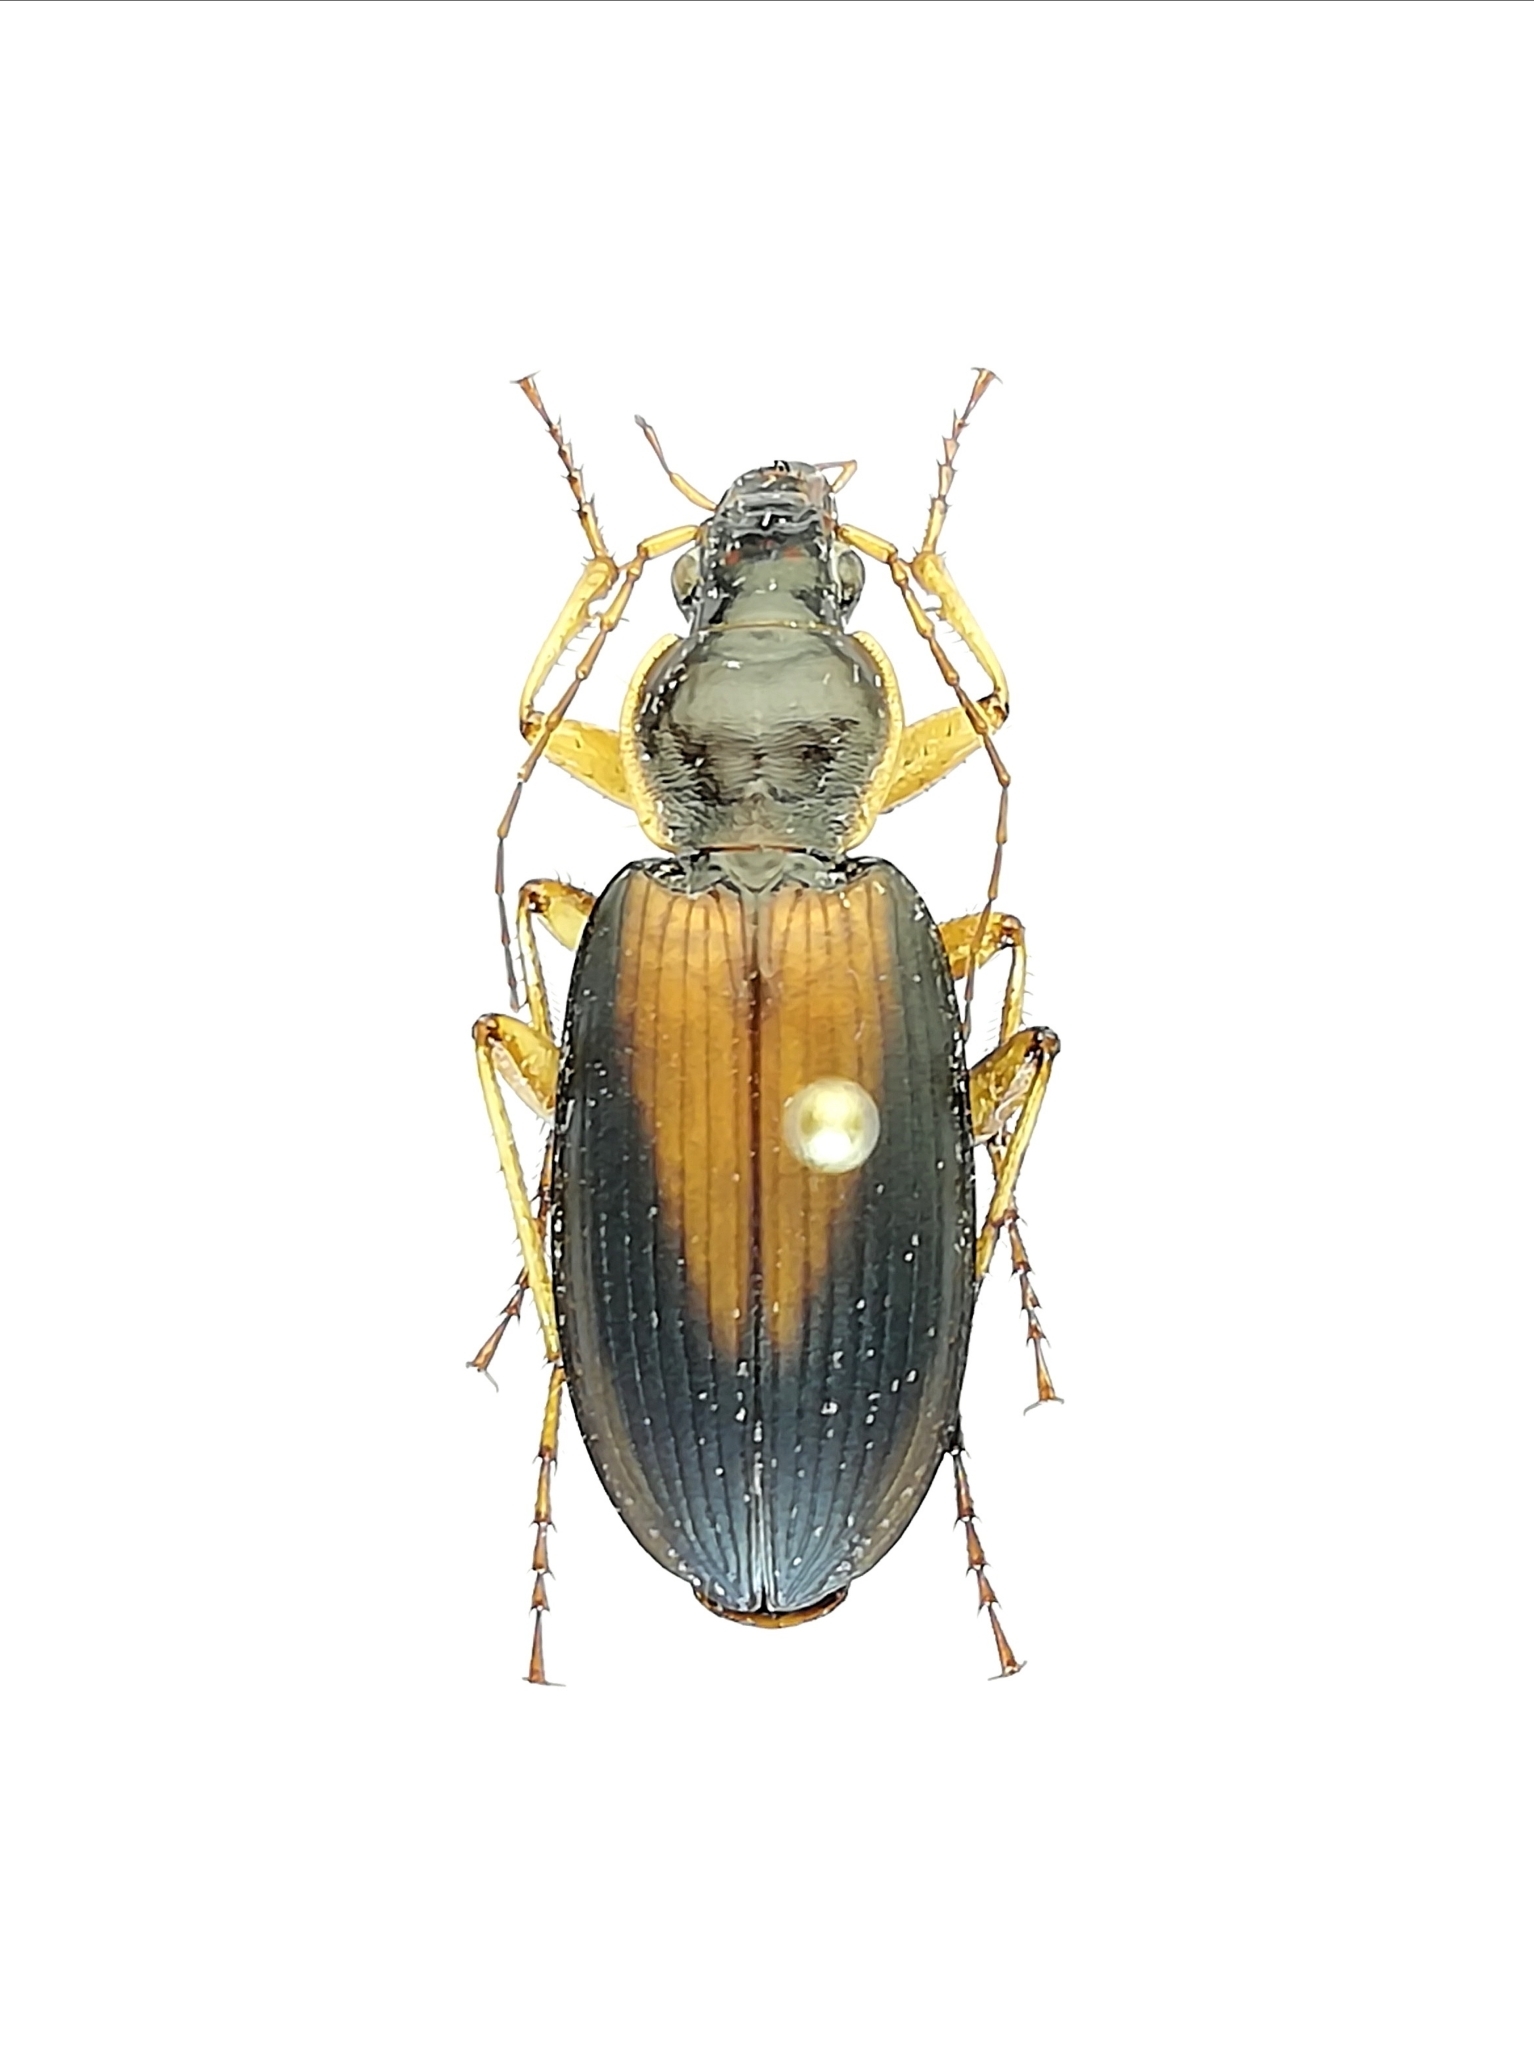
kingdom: Animalia
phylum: Arthropoda
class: Insecta
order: Coleoptera
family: Carabidae
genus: Dolichus
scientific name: Dolichus halensis
